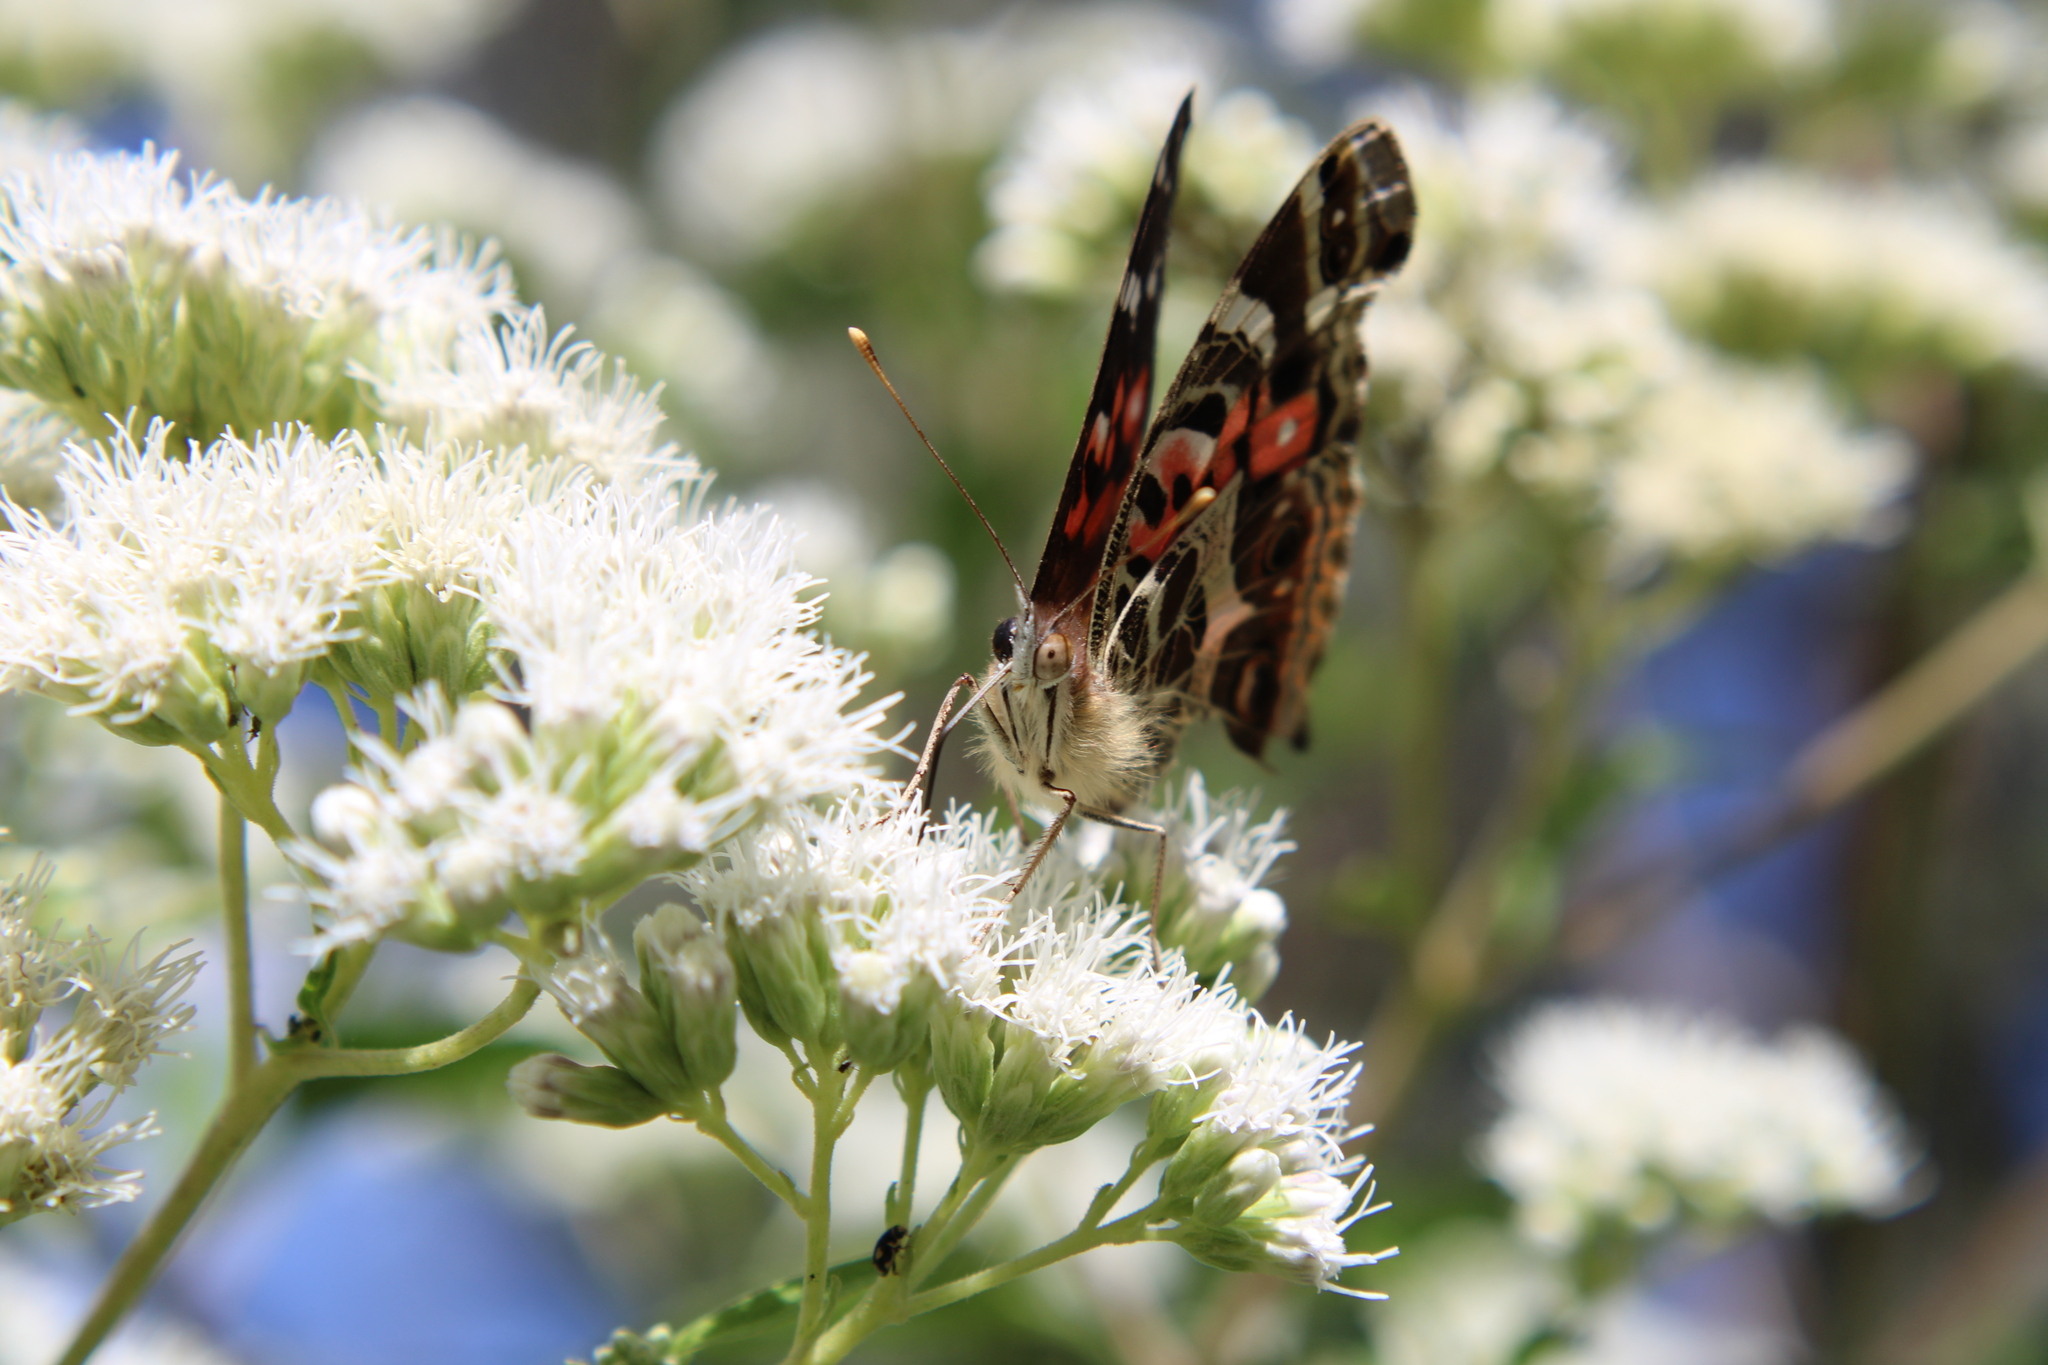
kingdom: Animalia
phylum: Arthropoda
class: Insecta
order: Lepidoptera
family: Nymphalidae
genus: Vanessa
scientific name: Vanessa braziliensis
